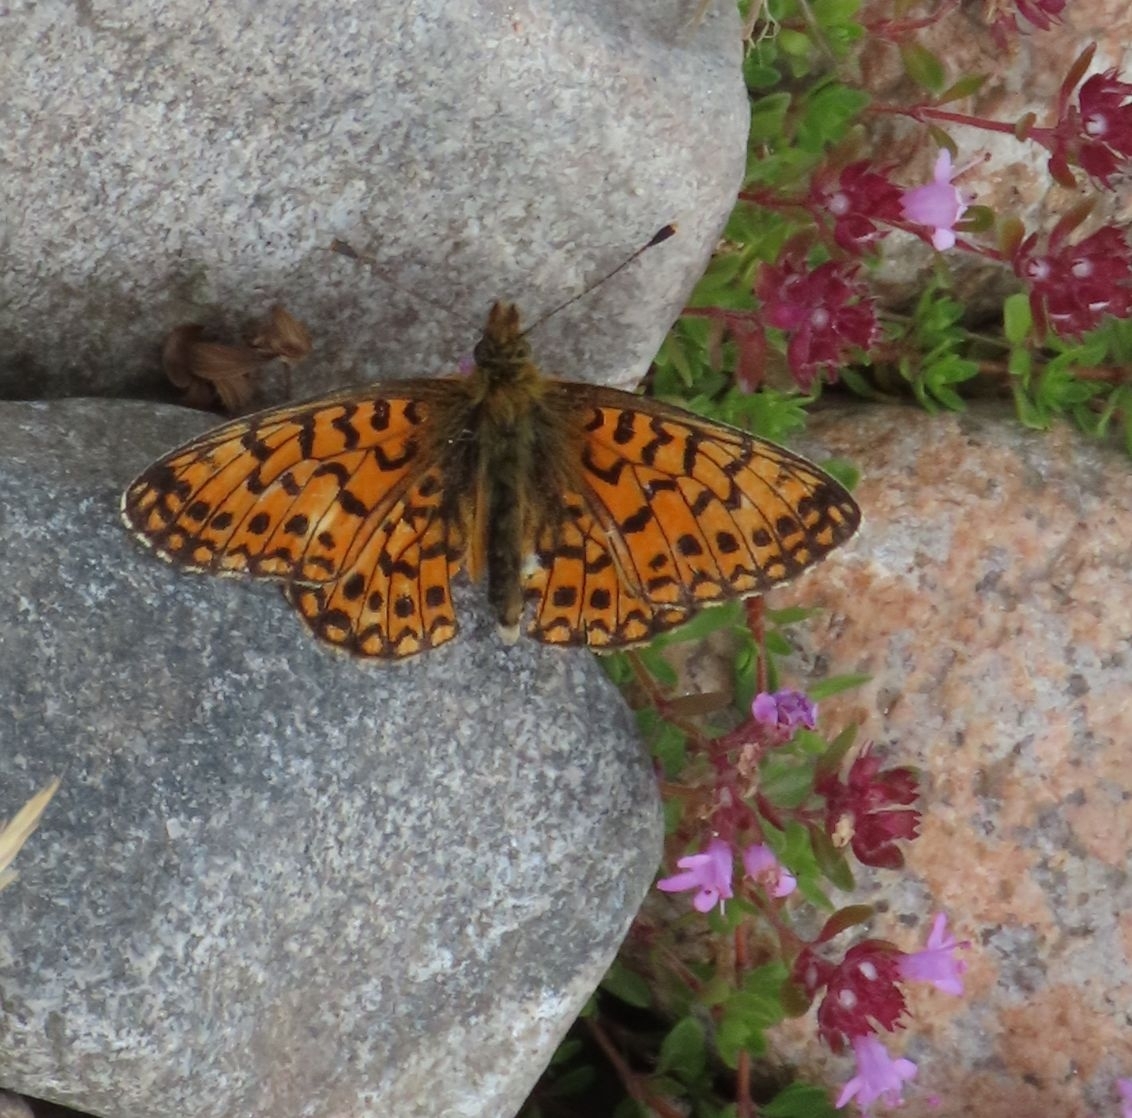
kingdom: Animalia
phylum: Arthropoda
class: Insecta
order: Lepidoptera
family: Nymphalidae
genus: Boloria
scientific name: Boloria selene
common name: Small pearl-bordered fritillary
